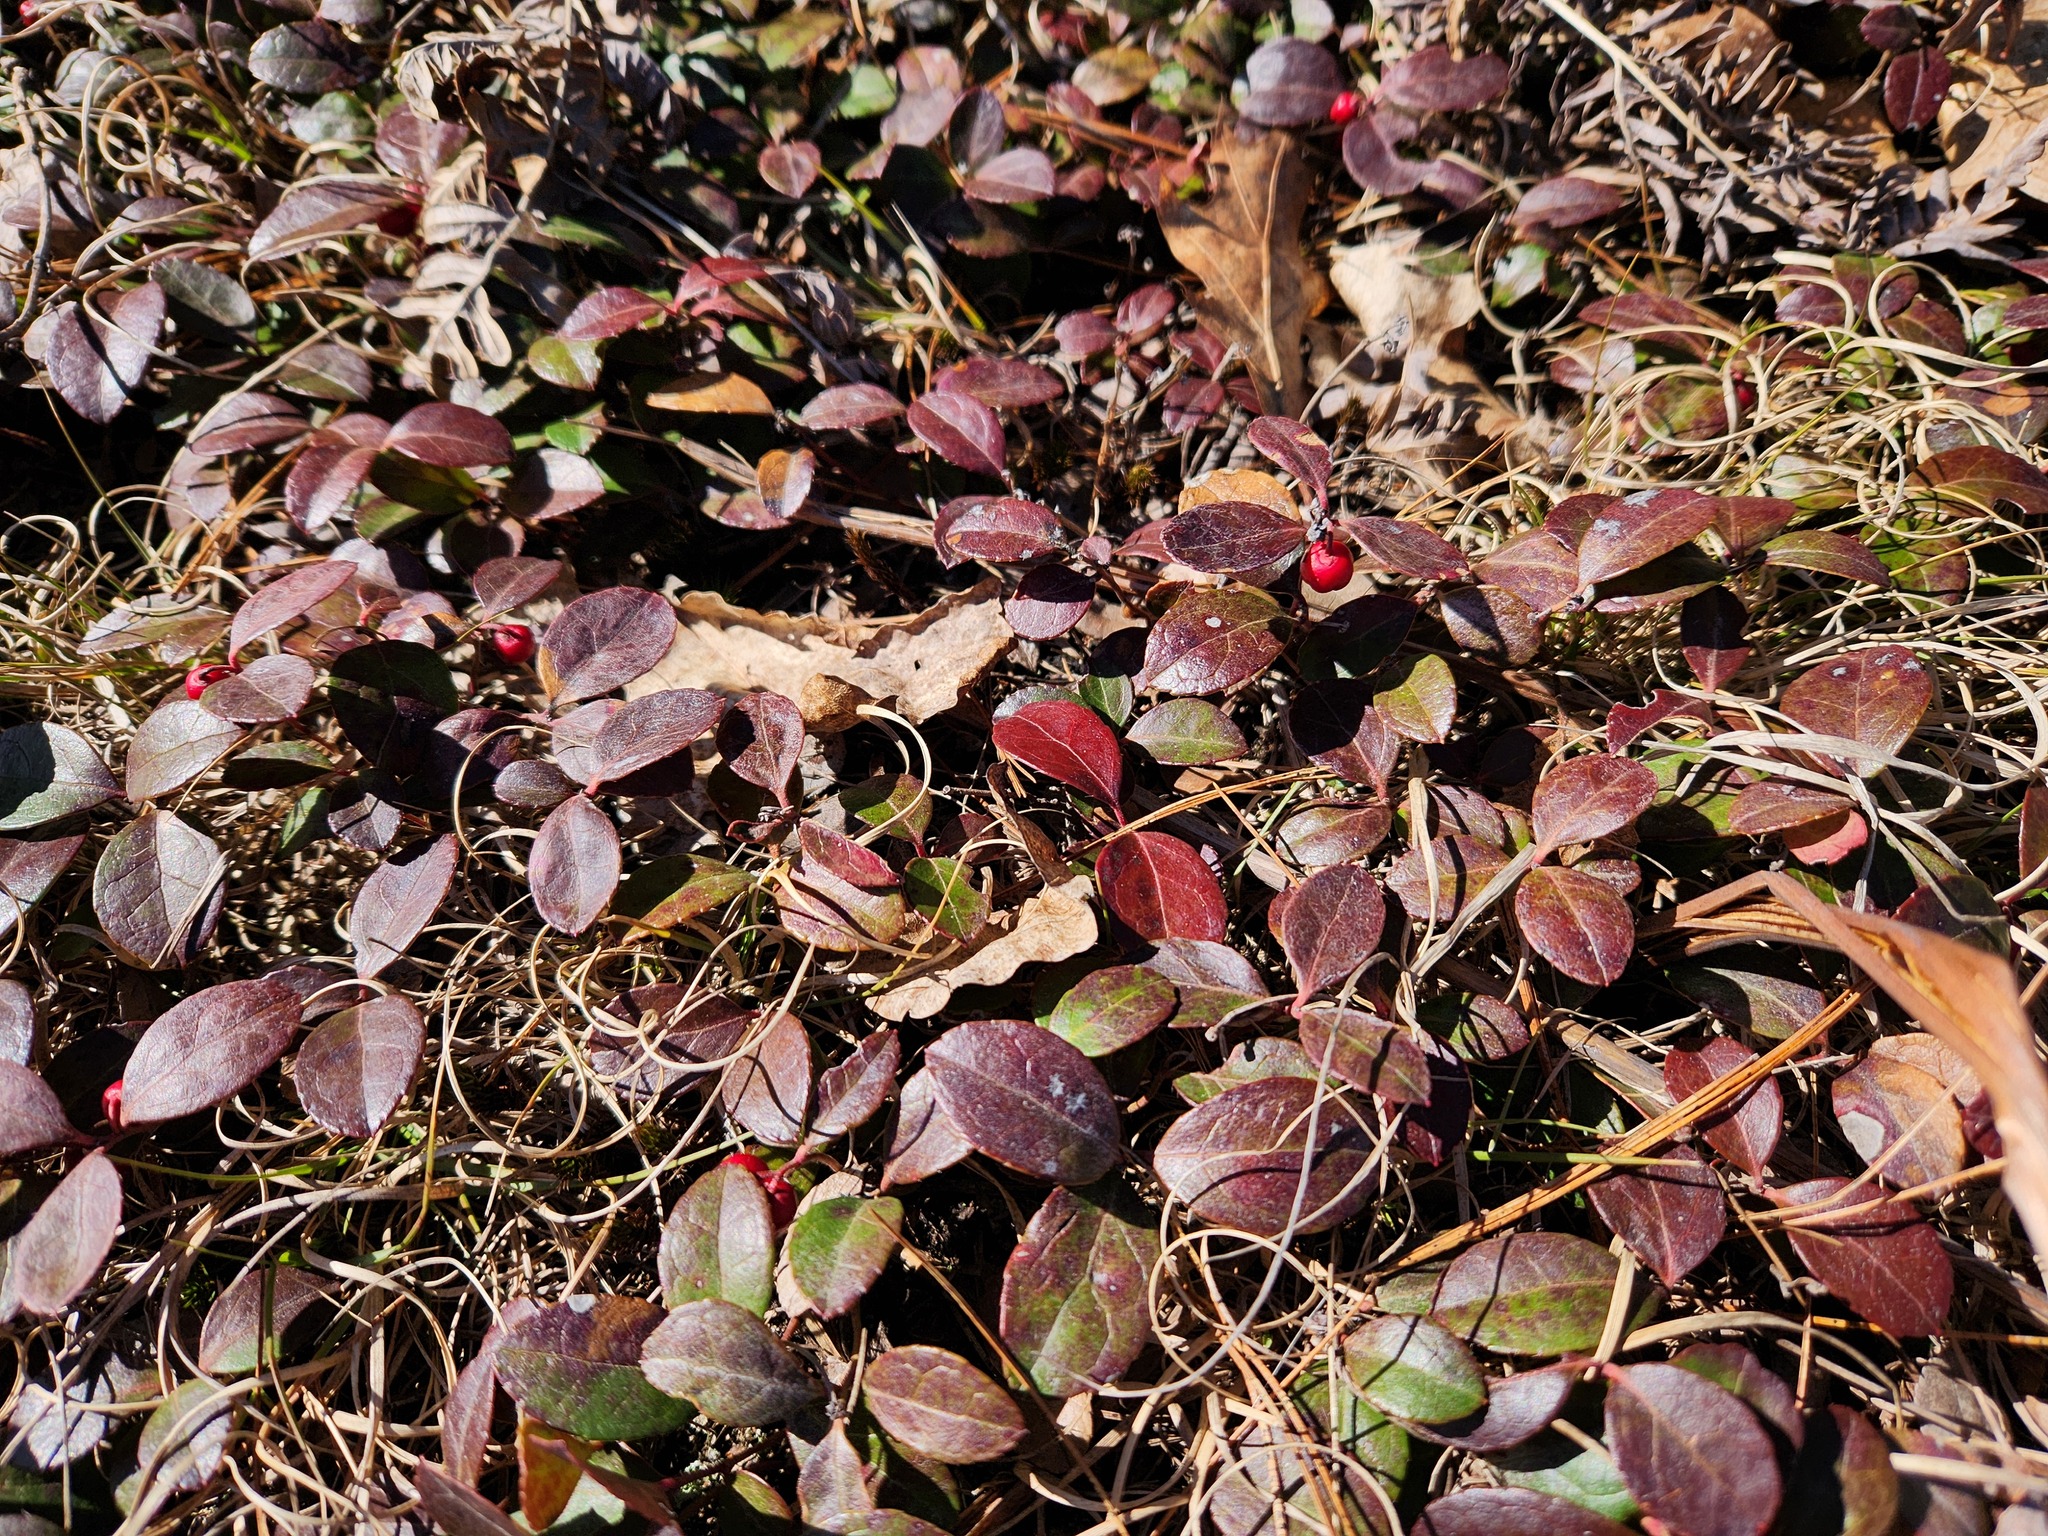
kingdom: Plantae
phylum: Tracheophyta
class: Magnoliopsida
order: Ericales
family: Ericaceae
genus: Gaultheria
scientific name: Gaultheria procumbens
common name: Checkerberry
